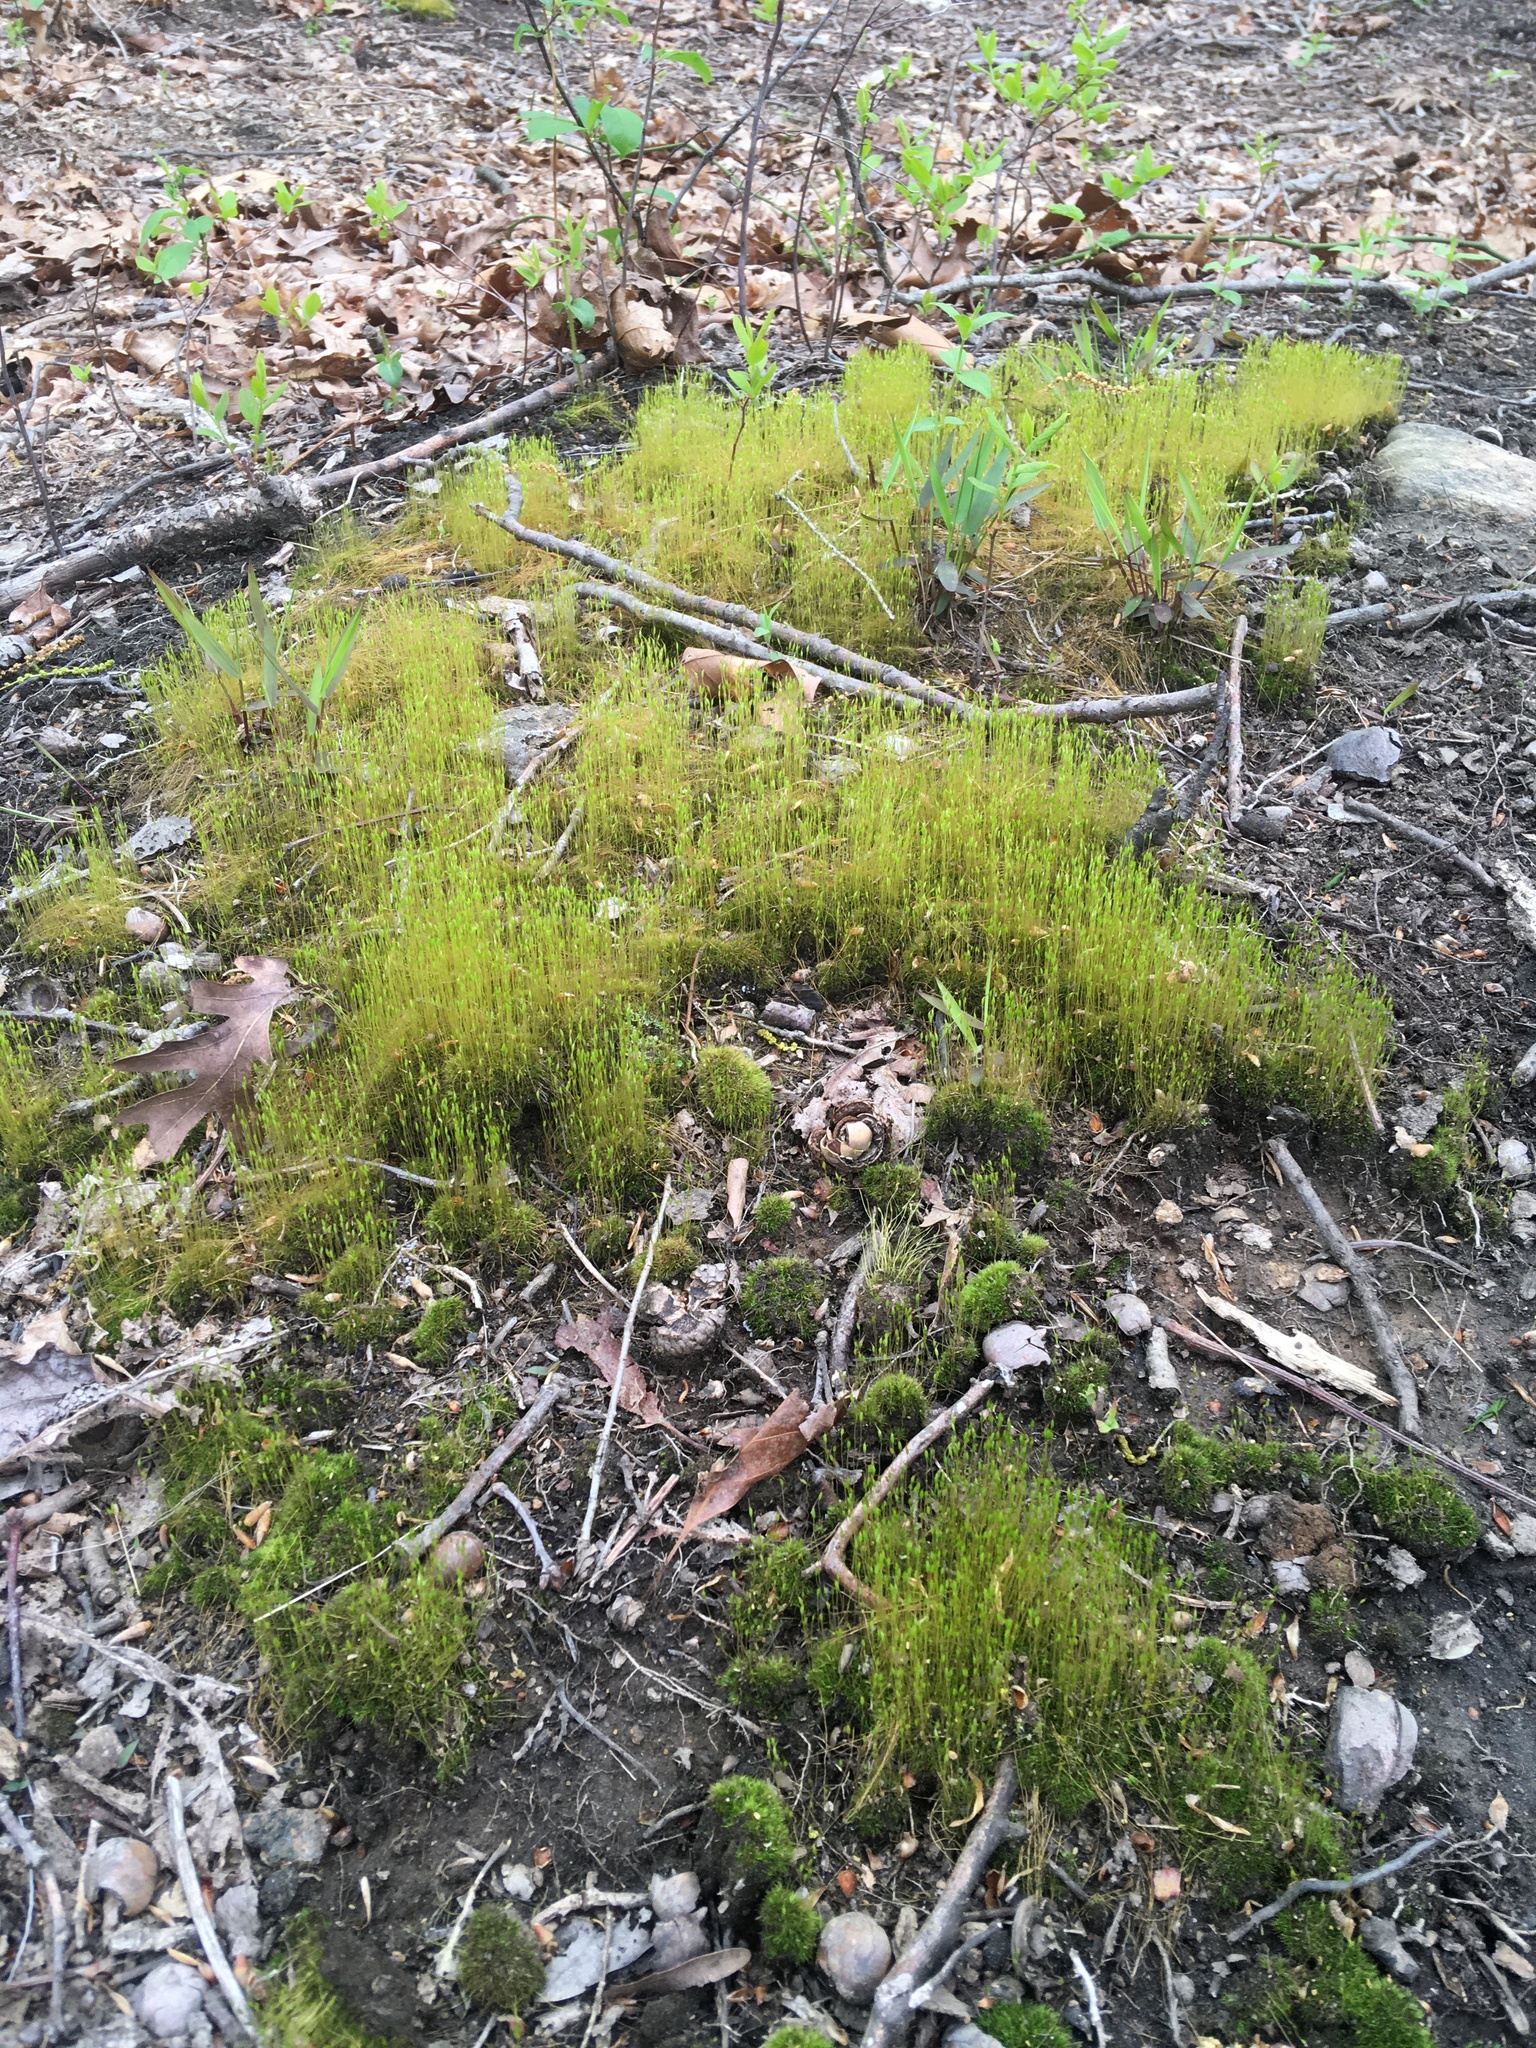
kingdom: Plantae
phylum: Bryophyta
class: Bryopsida
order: Funariales
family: Funariaceae
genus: Funaria
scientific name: Funaria hygrometrica
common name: Common cord moss
